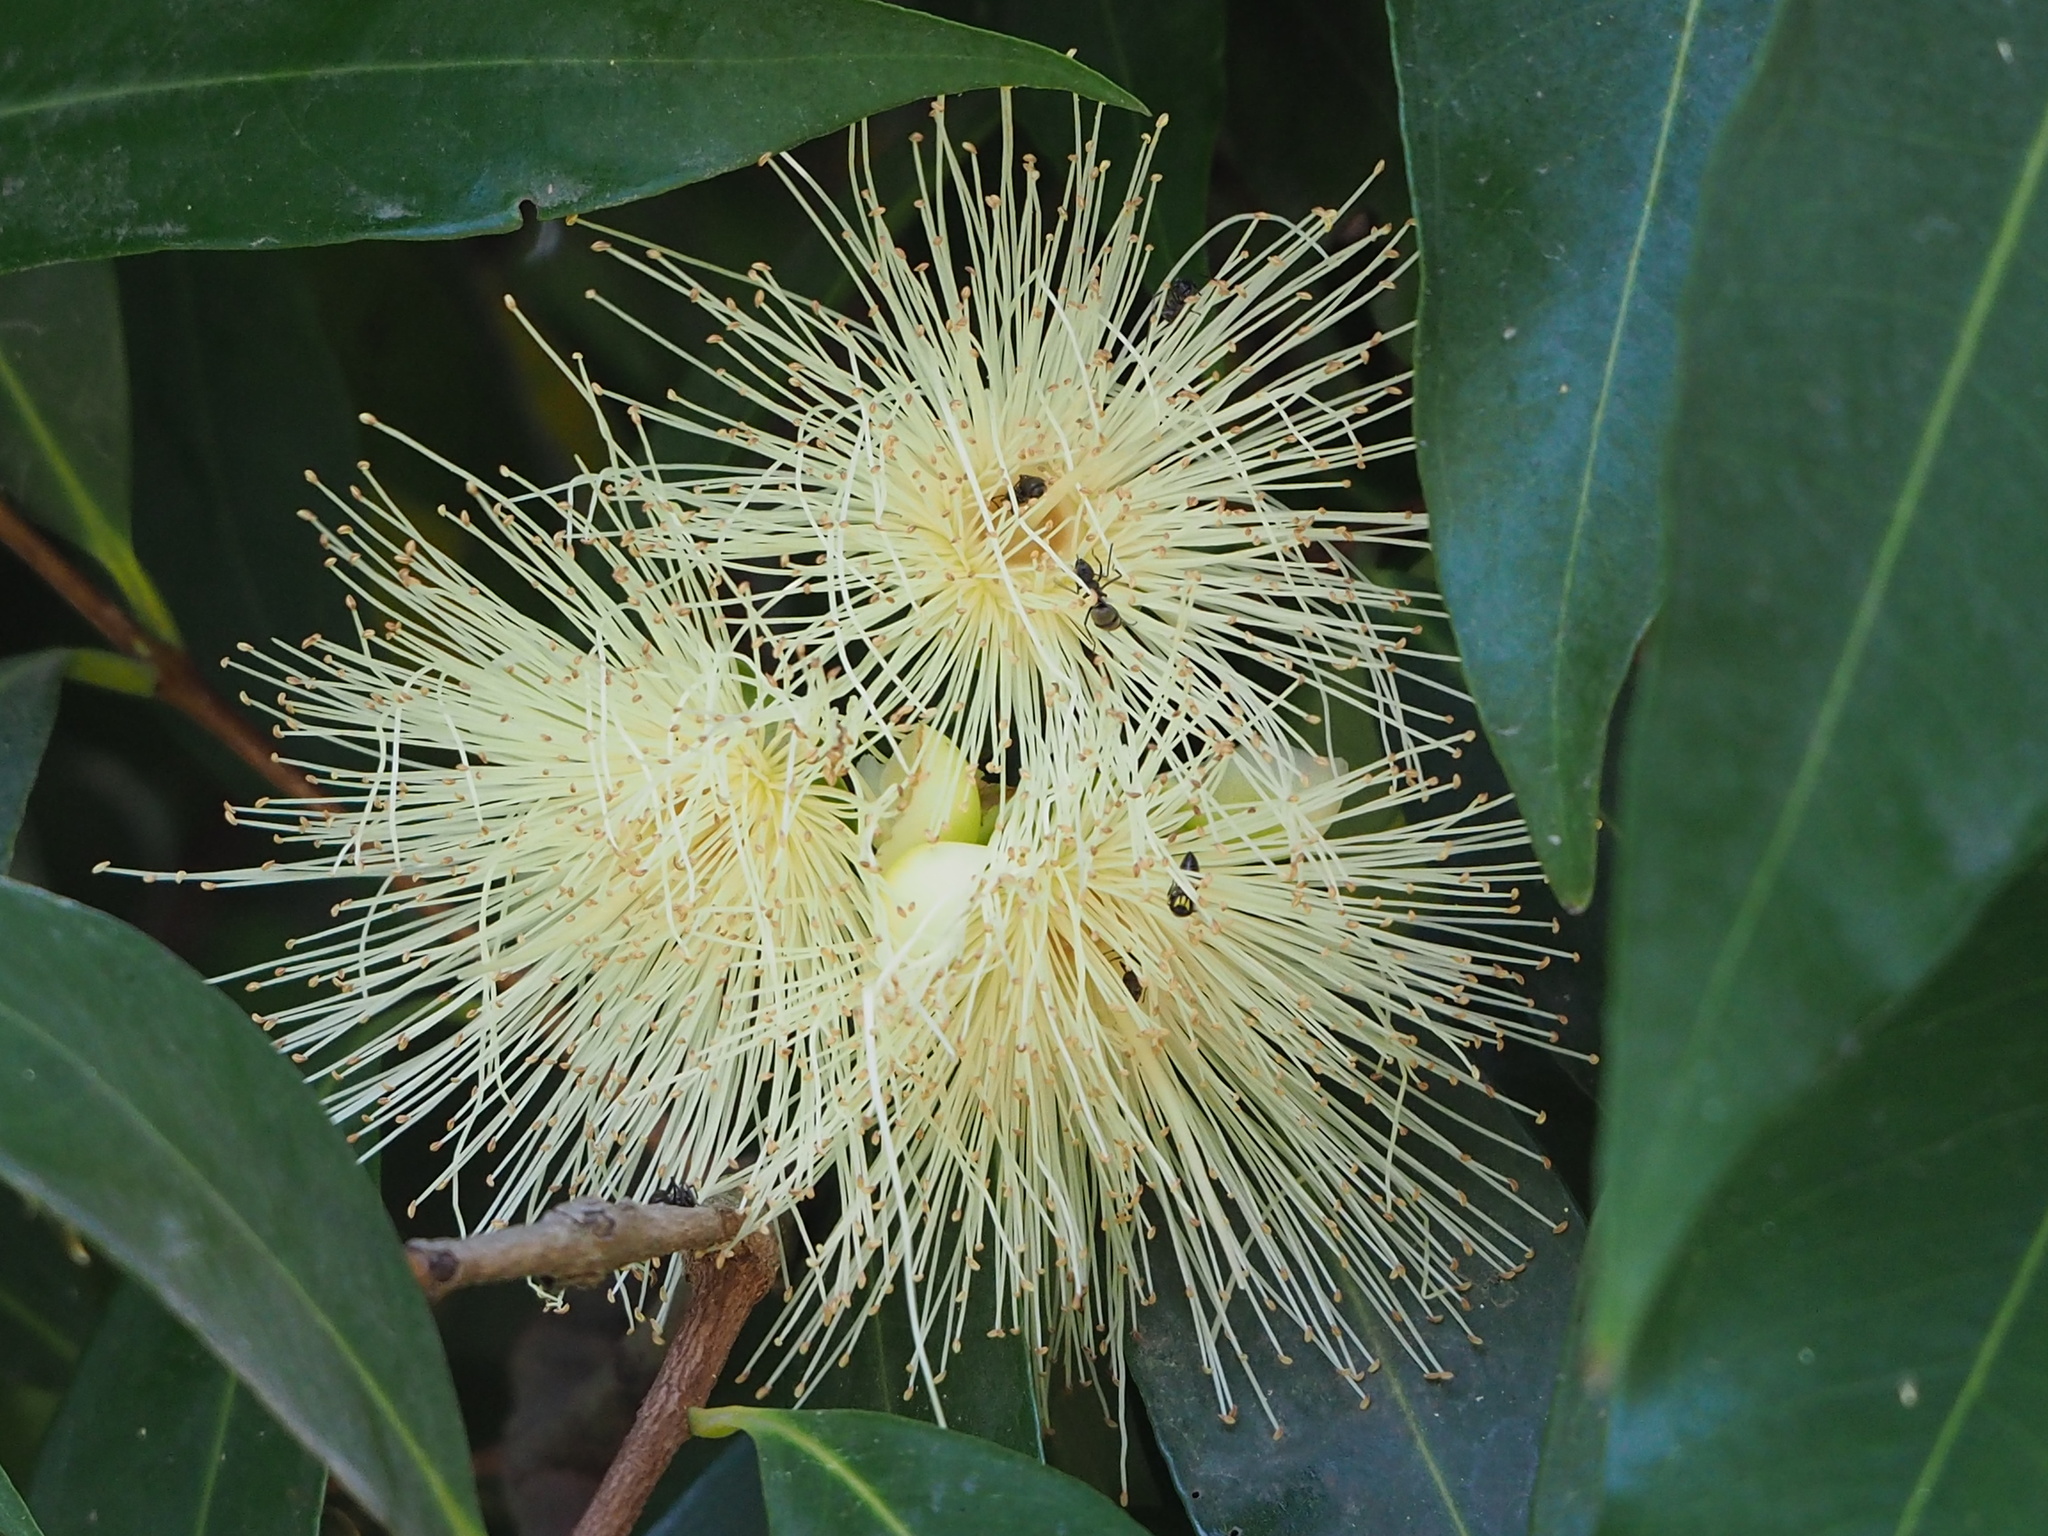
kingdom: Plantae
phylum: Tracheophyta
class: Magnoliopsida
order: Myrtales
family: Myrtaceae
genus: Syzygium
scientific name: Syzygium jambos
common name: Malabar plum
